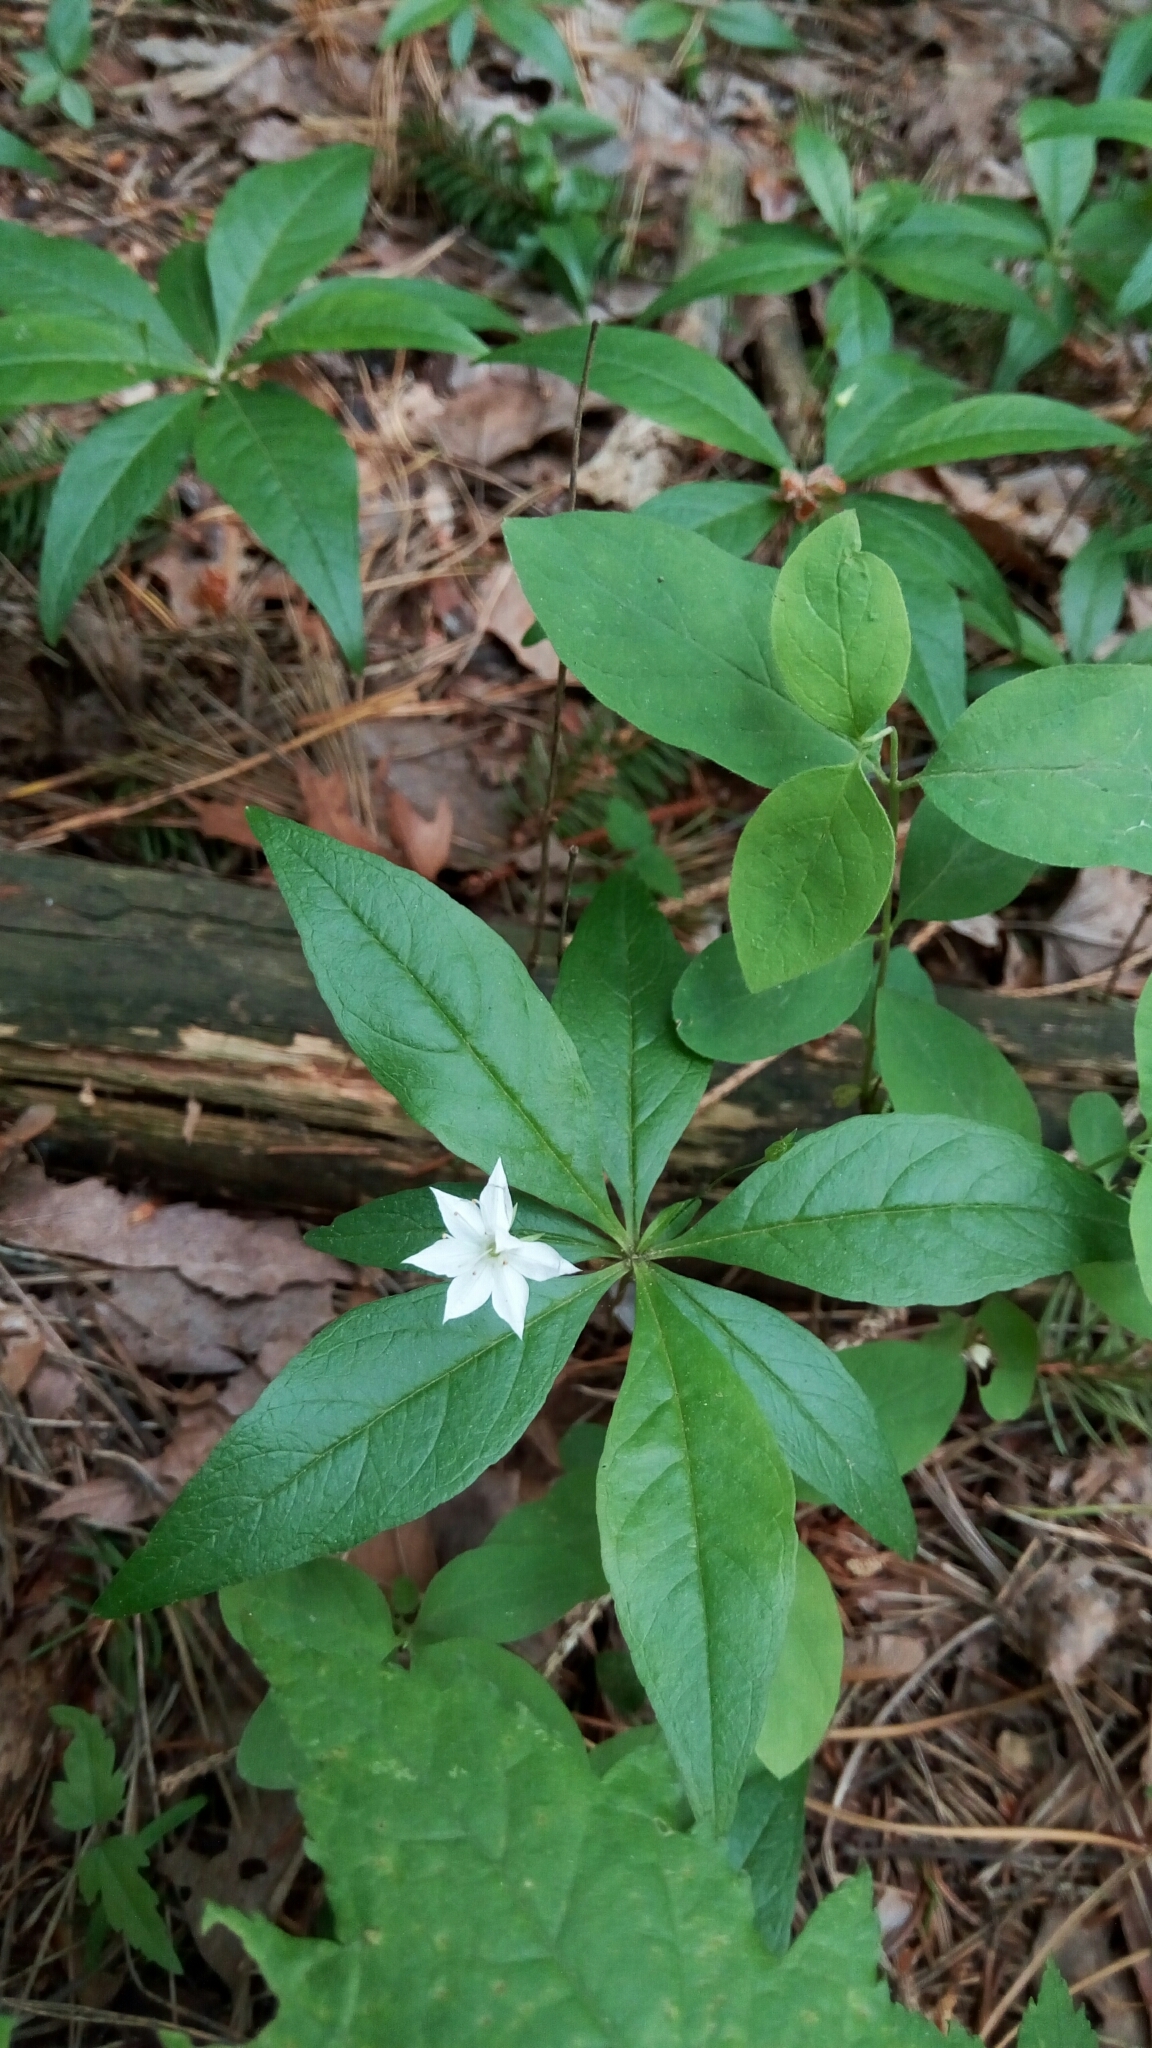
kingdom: Plantae
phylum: Tracheophyta
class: Magnoliopsida
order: Ericales
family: Primulaceae
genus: Lysimachia
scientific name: Lysimachia borealis
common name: American starflower
